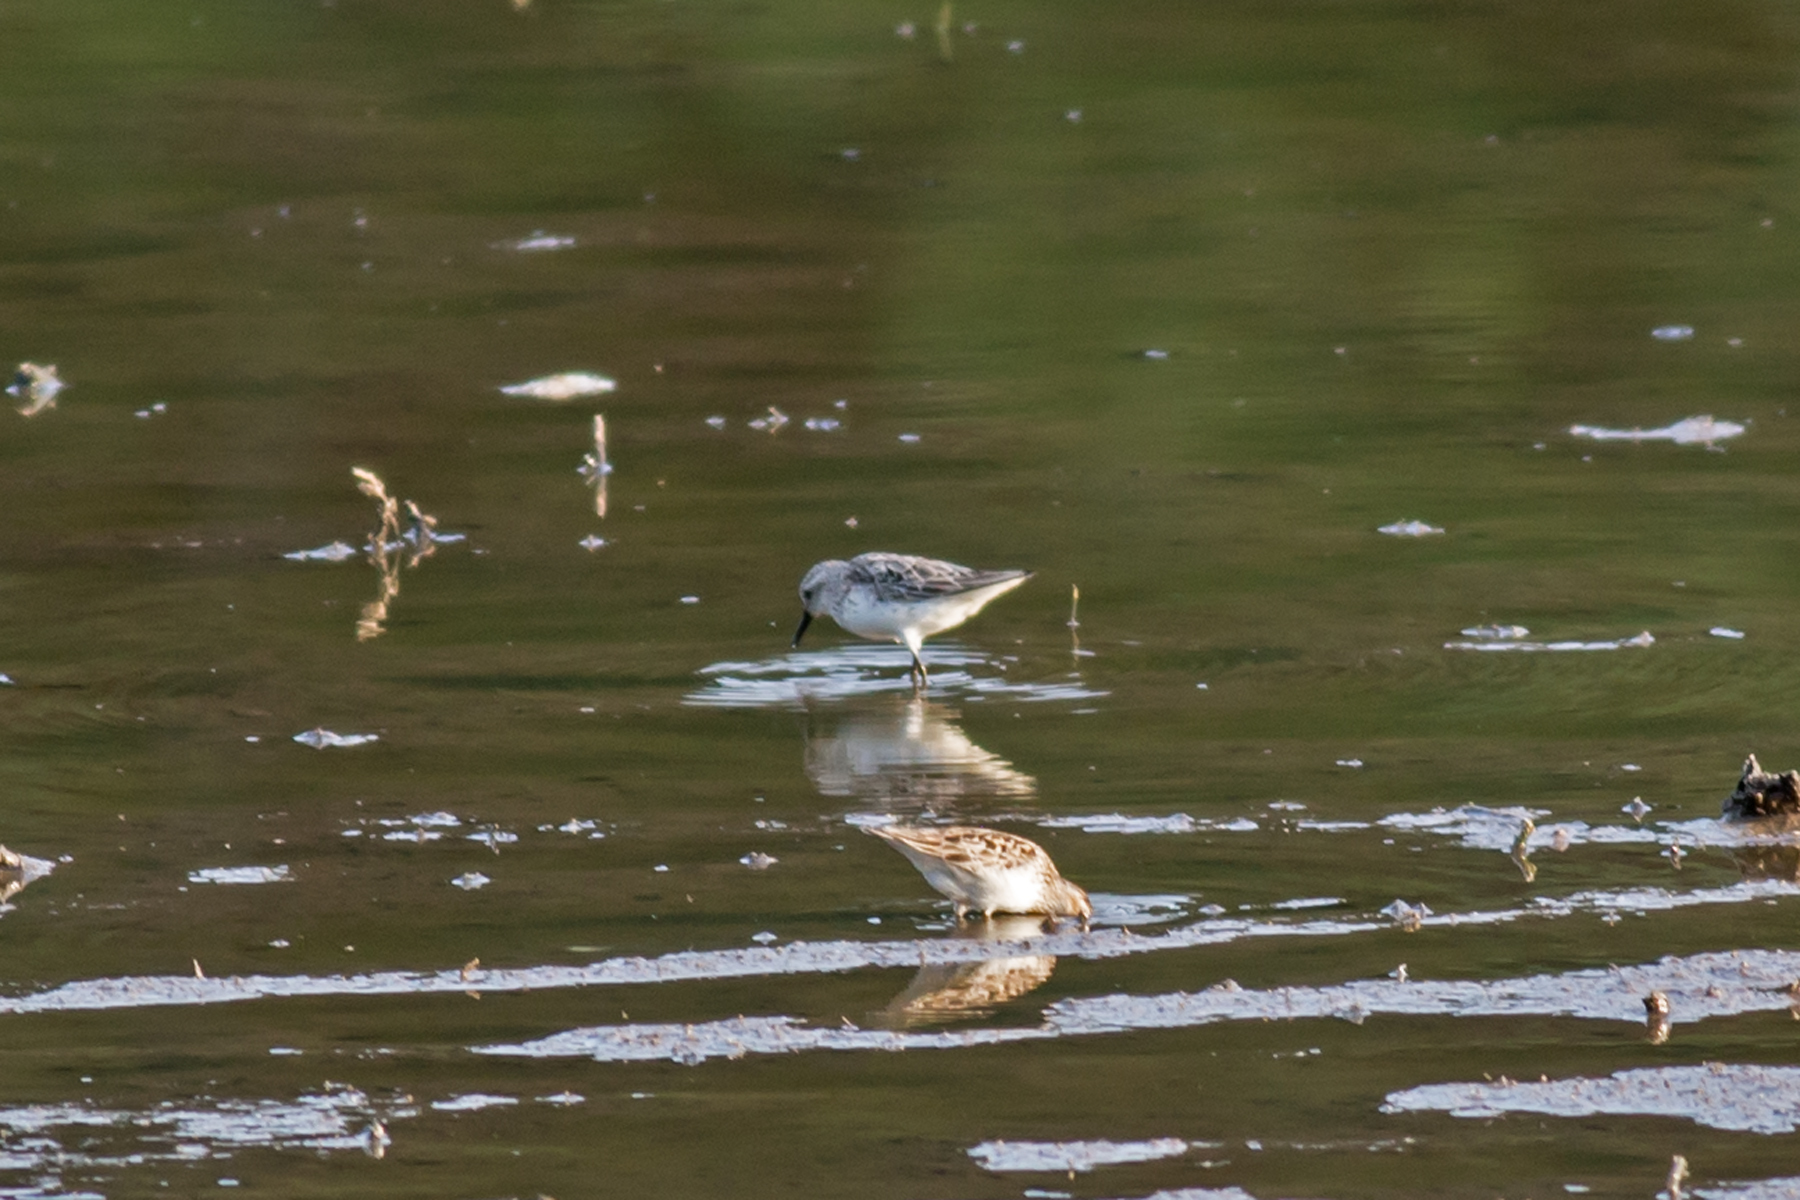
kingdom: Animalia
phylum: Chordata
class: Aves
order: Charadriiformes
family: Scolopacidae
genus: Calidris
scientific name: Calidris pusilla
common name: Semipalmated sandpiper
